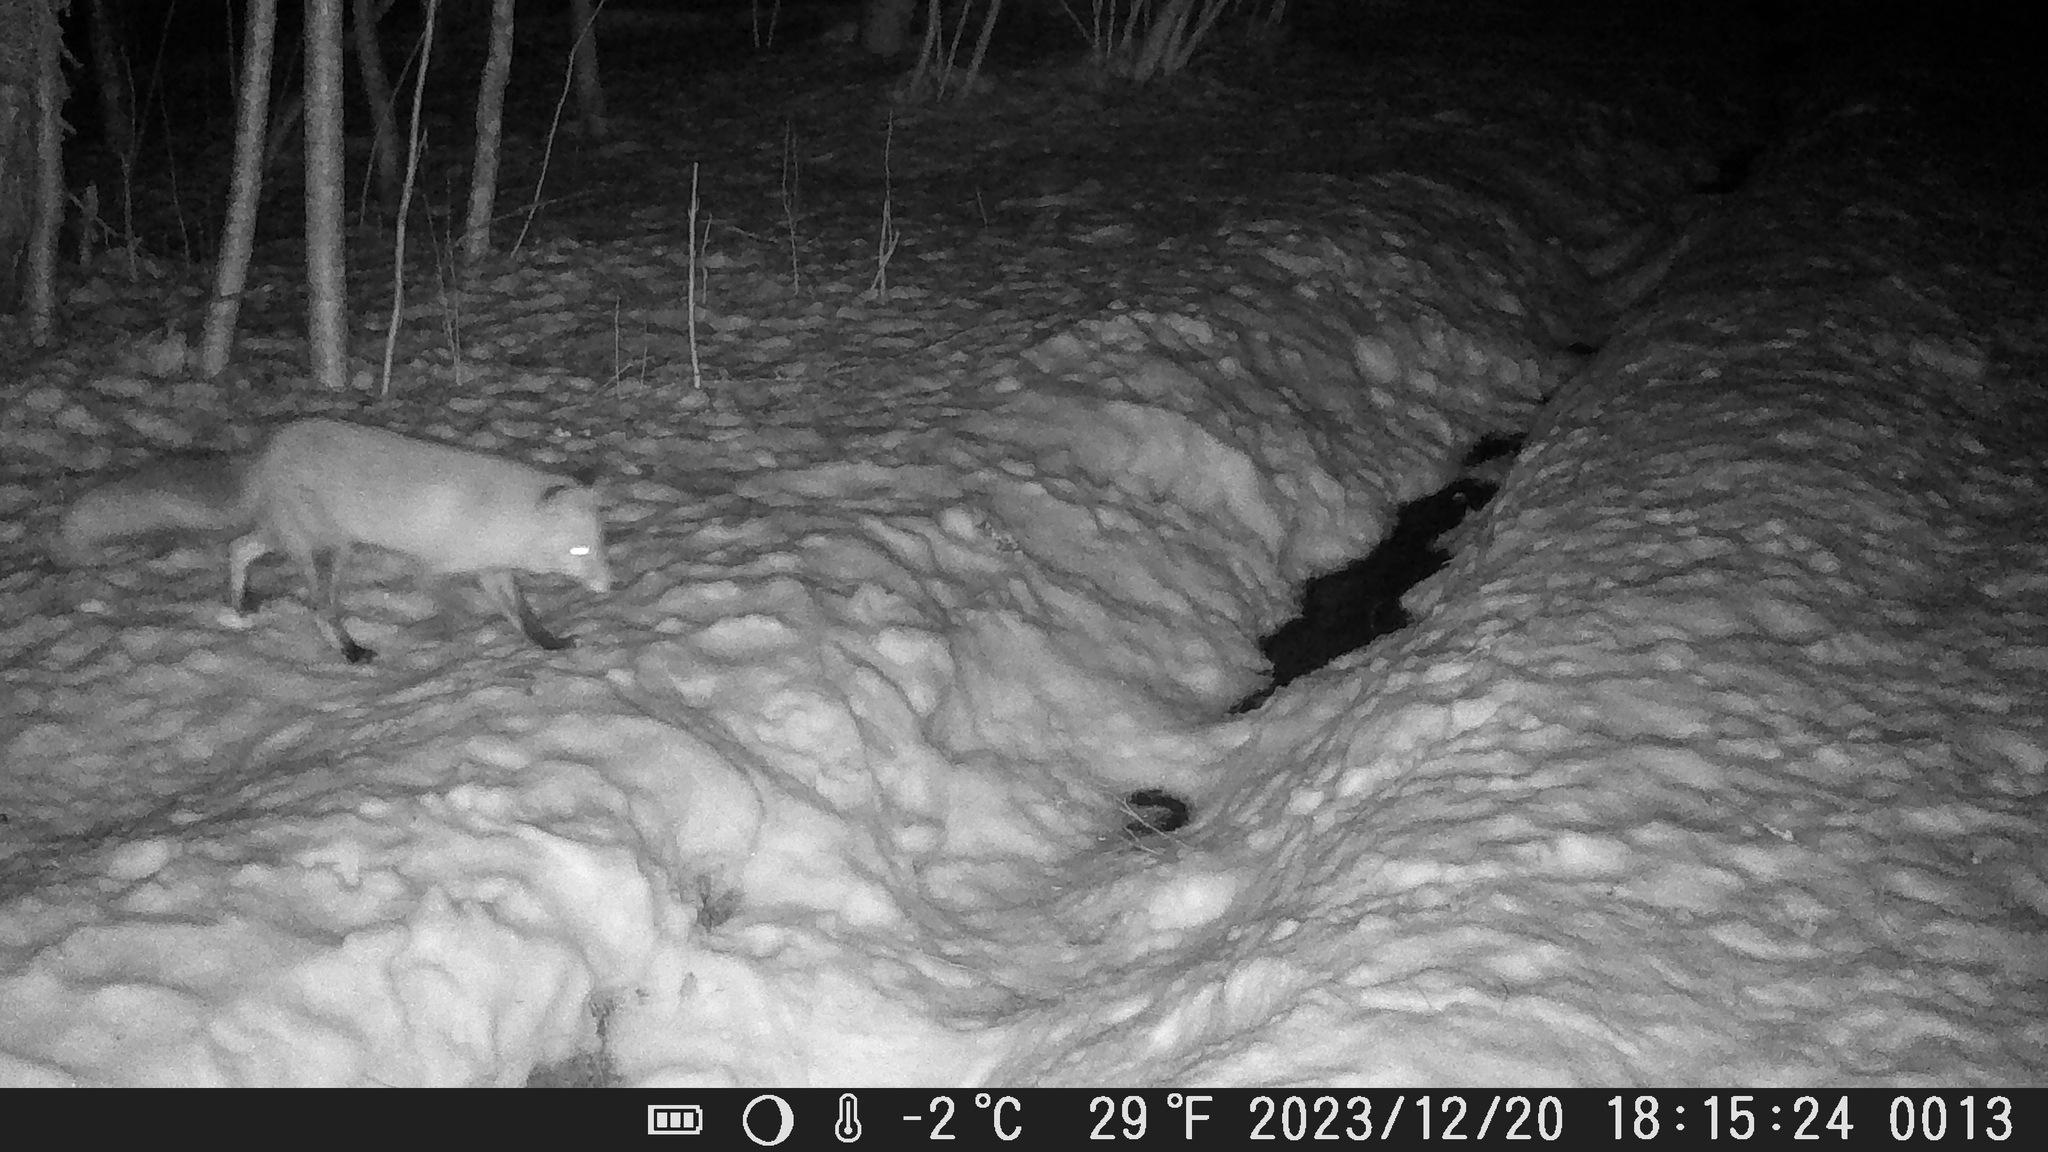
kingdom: Animalia
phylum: Chordata
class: Mammalia
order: Carnivora
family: Canidae
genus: Vulpes
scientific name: Vulpes vulpes
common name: Red fox
